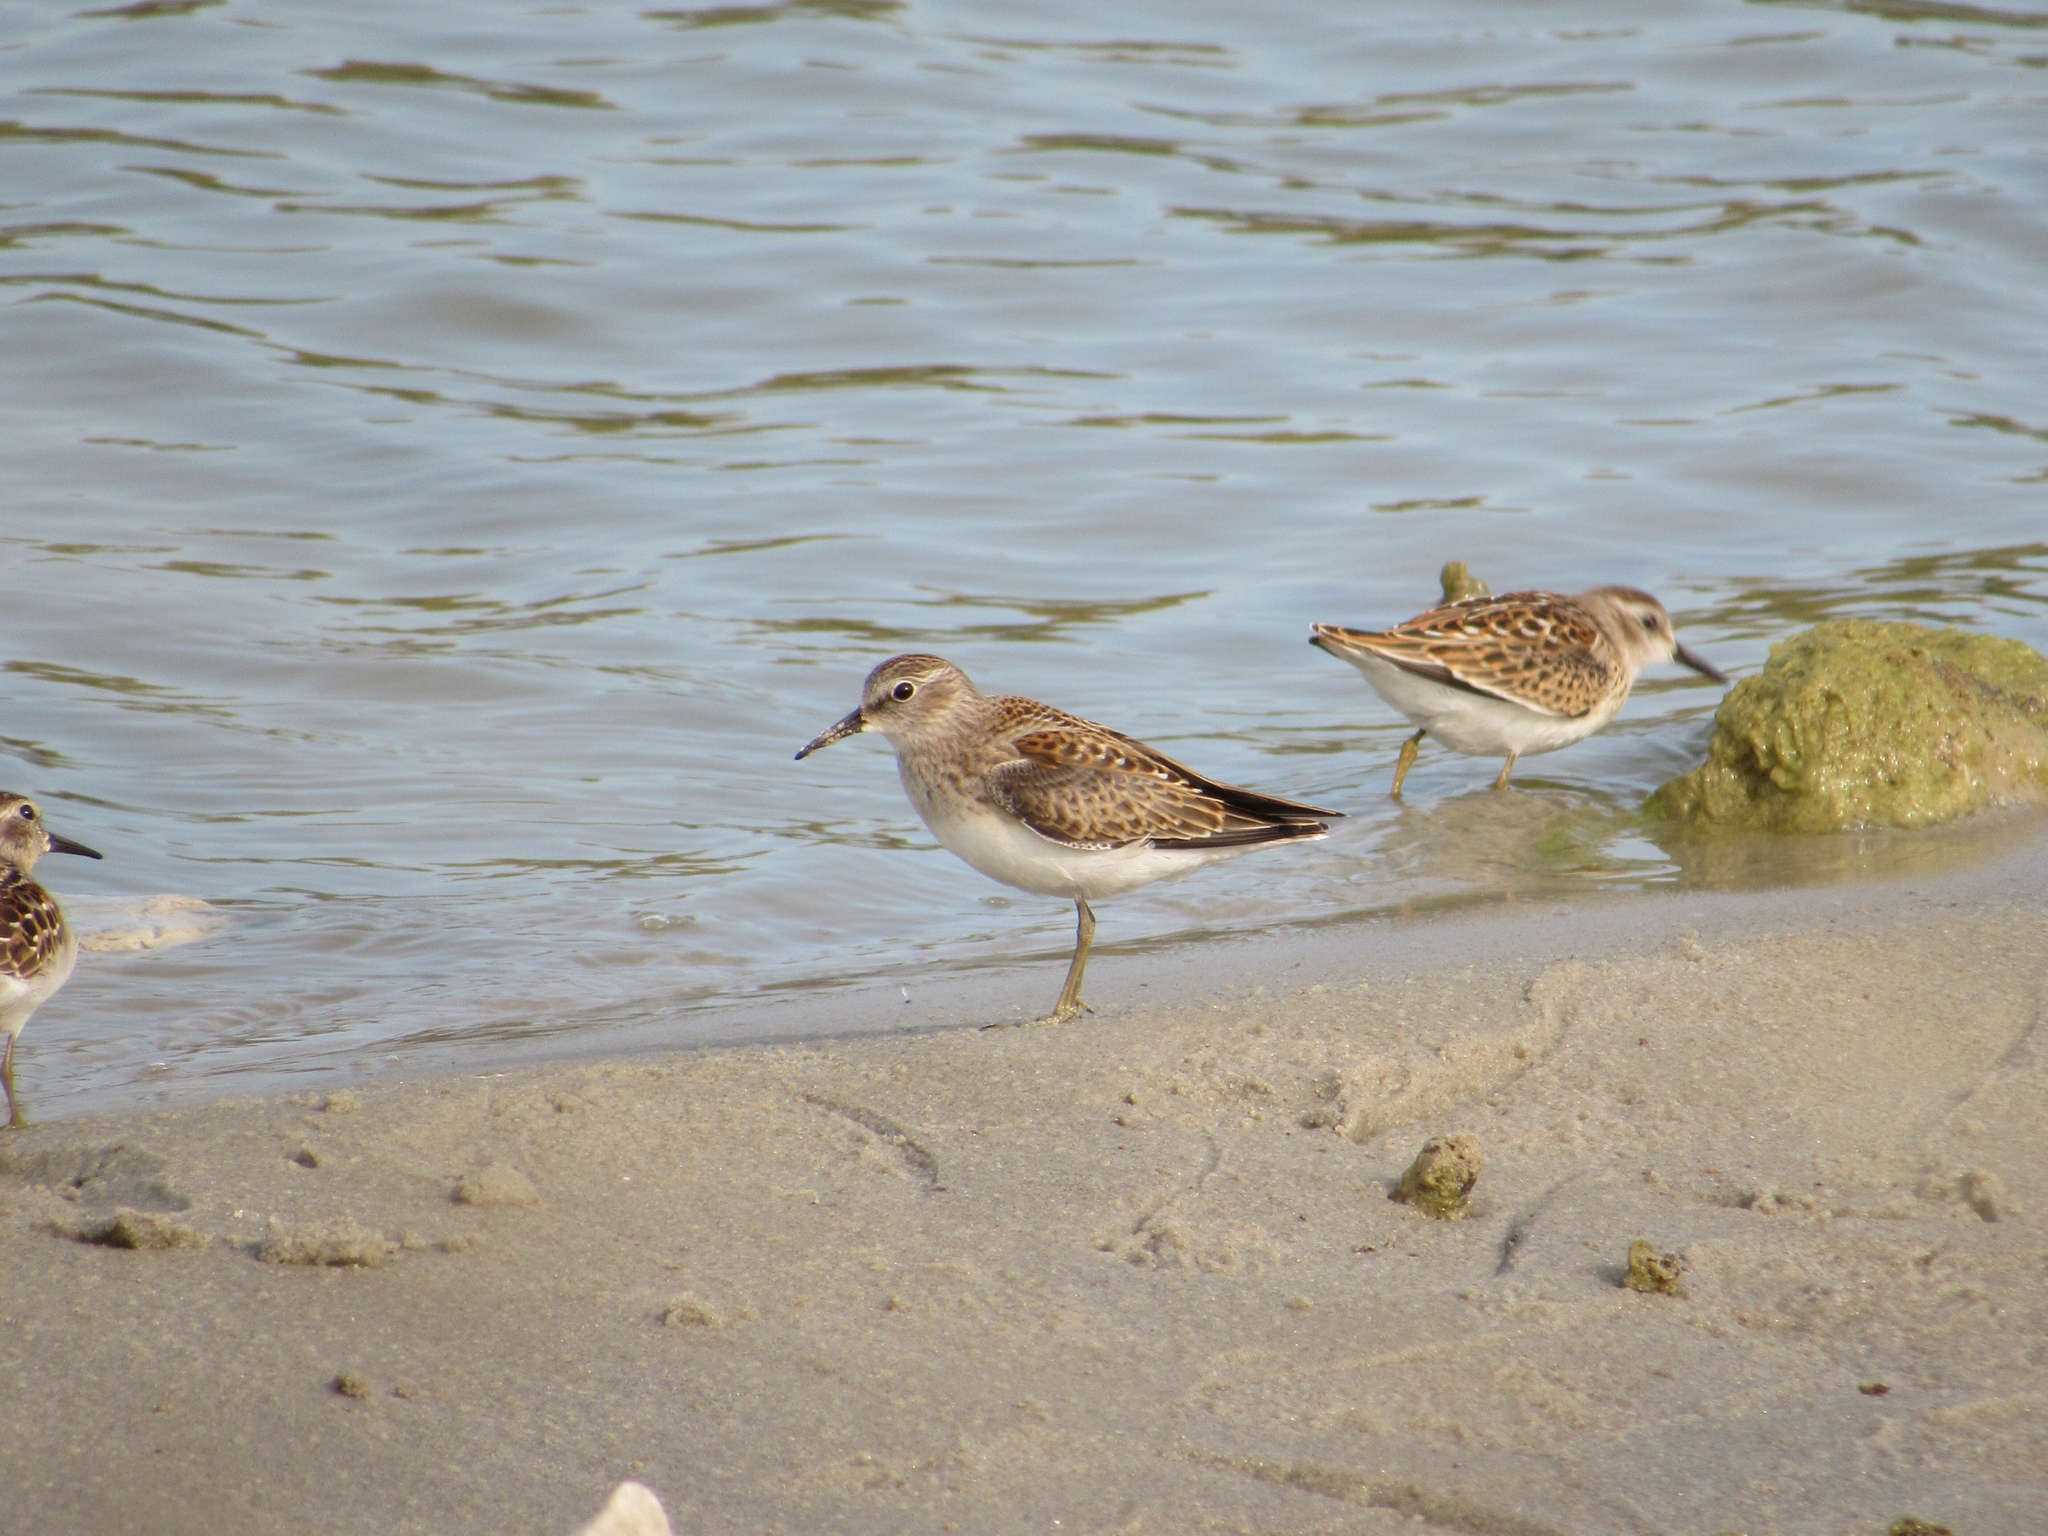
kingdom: Animalia
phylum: Chordata
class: Aves
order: Charadriiformes
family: Scolopacidae
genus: Calidris
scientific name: Calidris minutilla
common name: Least sandpiper
